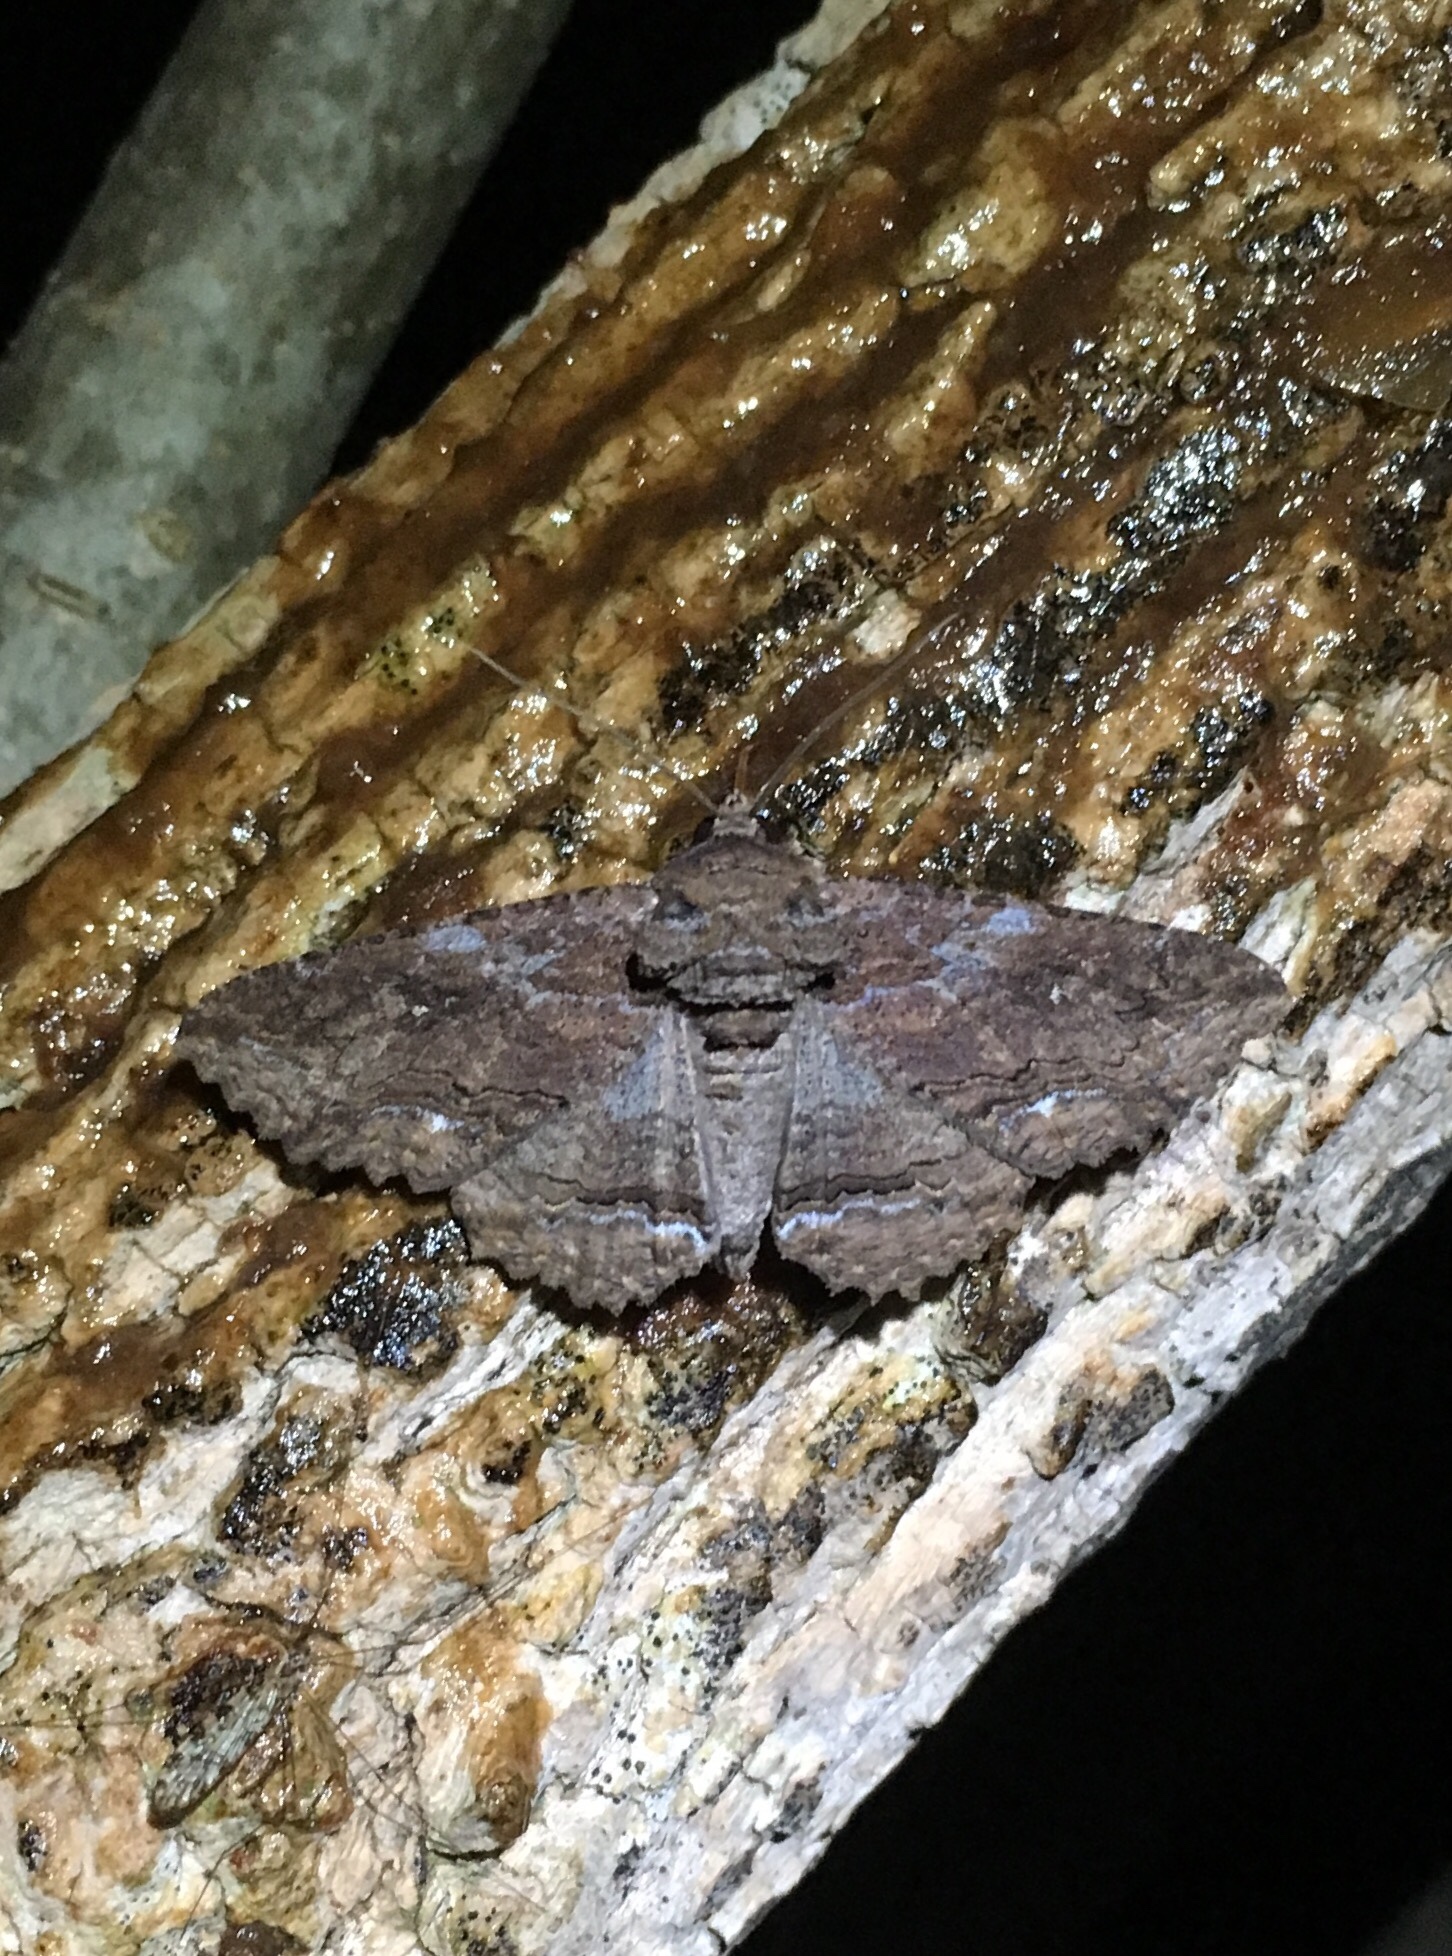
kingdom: Animalia
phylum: Arthropoda
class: Insecta
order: Lepidoptera
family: Erebidae
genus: Zale
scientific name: Zale lunata
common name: Lunate zale moth
